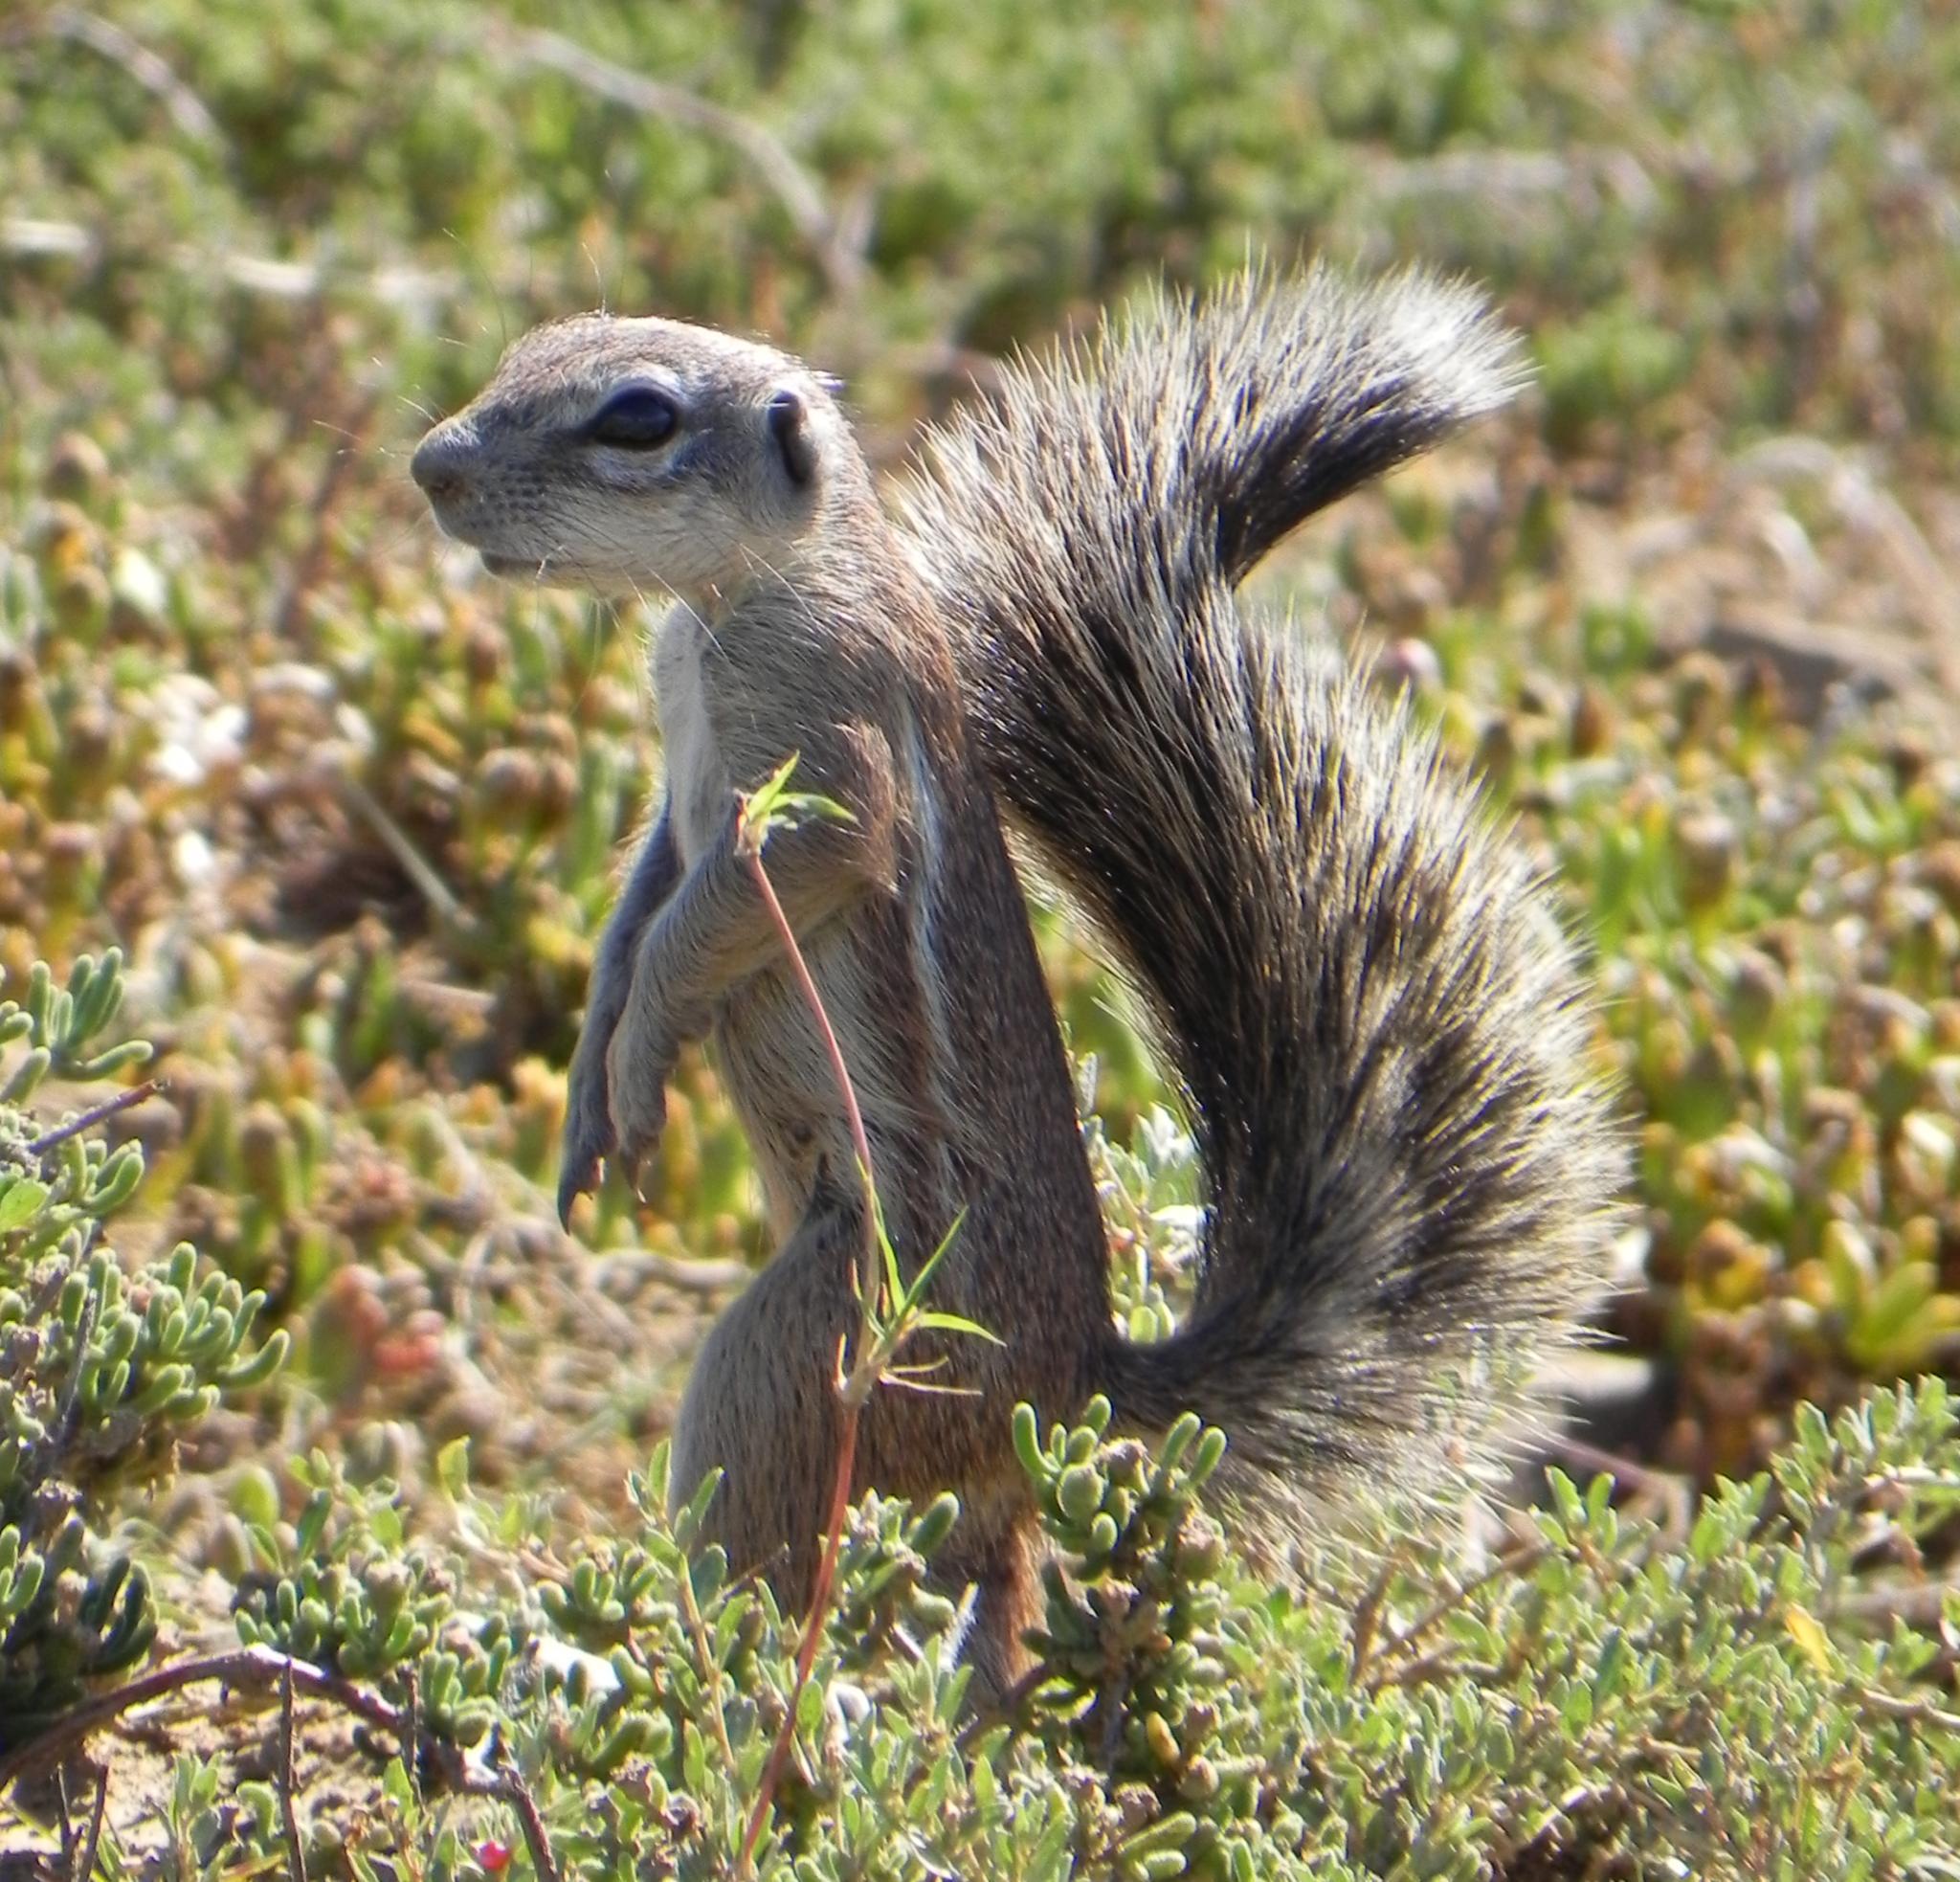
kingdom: Animalia
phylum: Chordata
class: Mammalia
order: Rodentia
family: Sciuridae
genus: Xerus
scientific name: Xerus inauris
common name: South african ground squirrel
